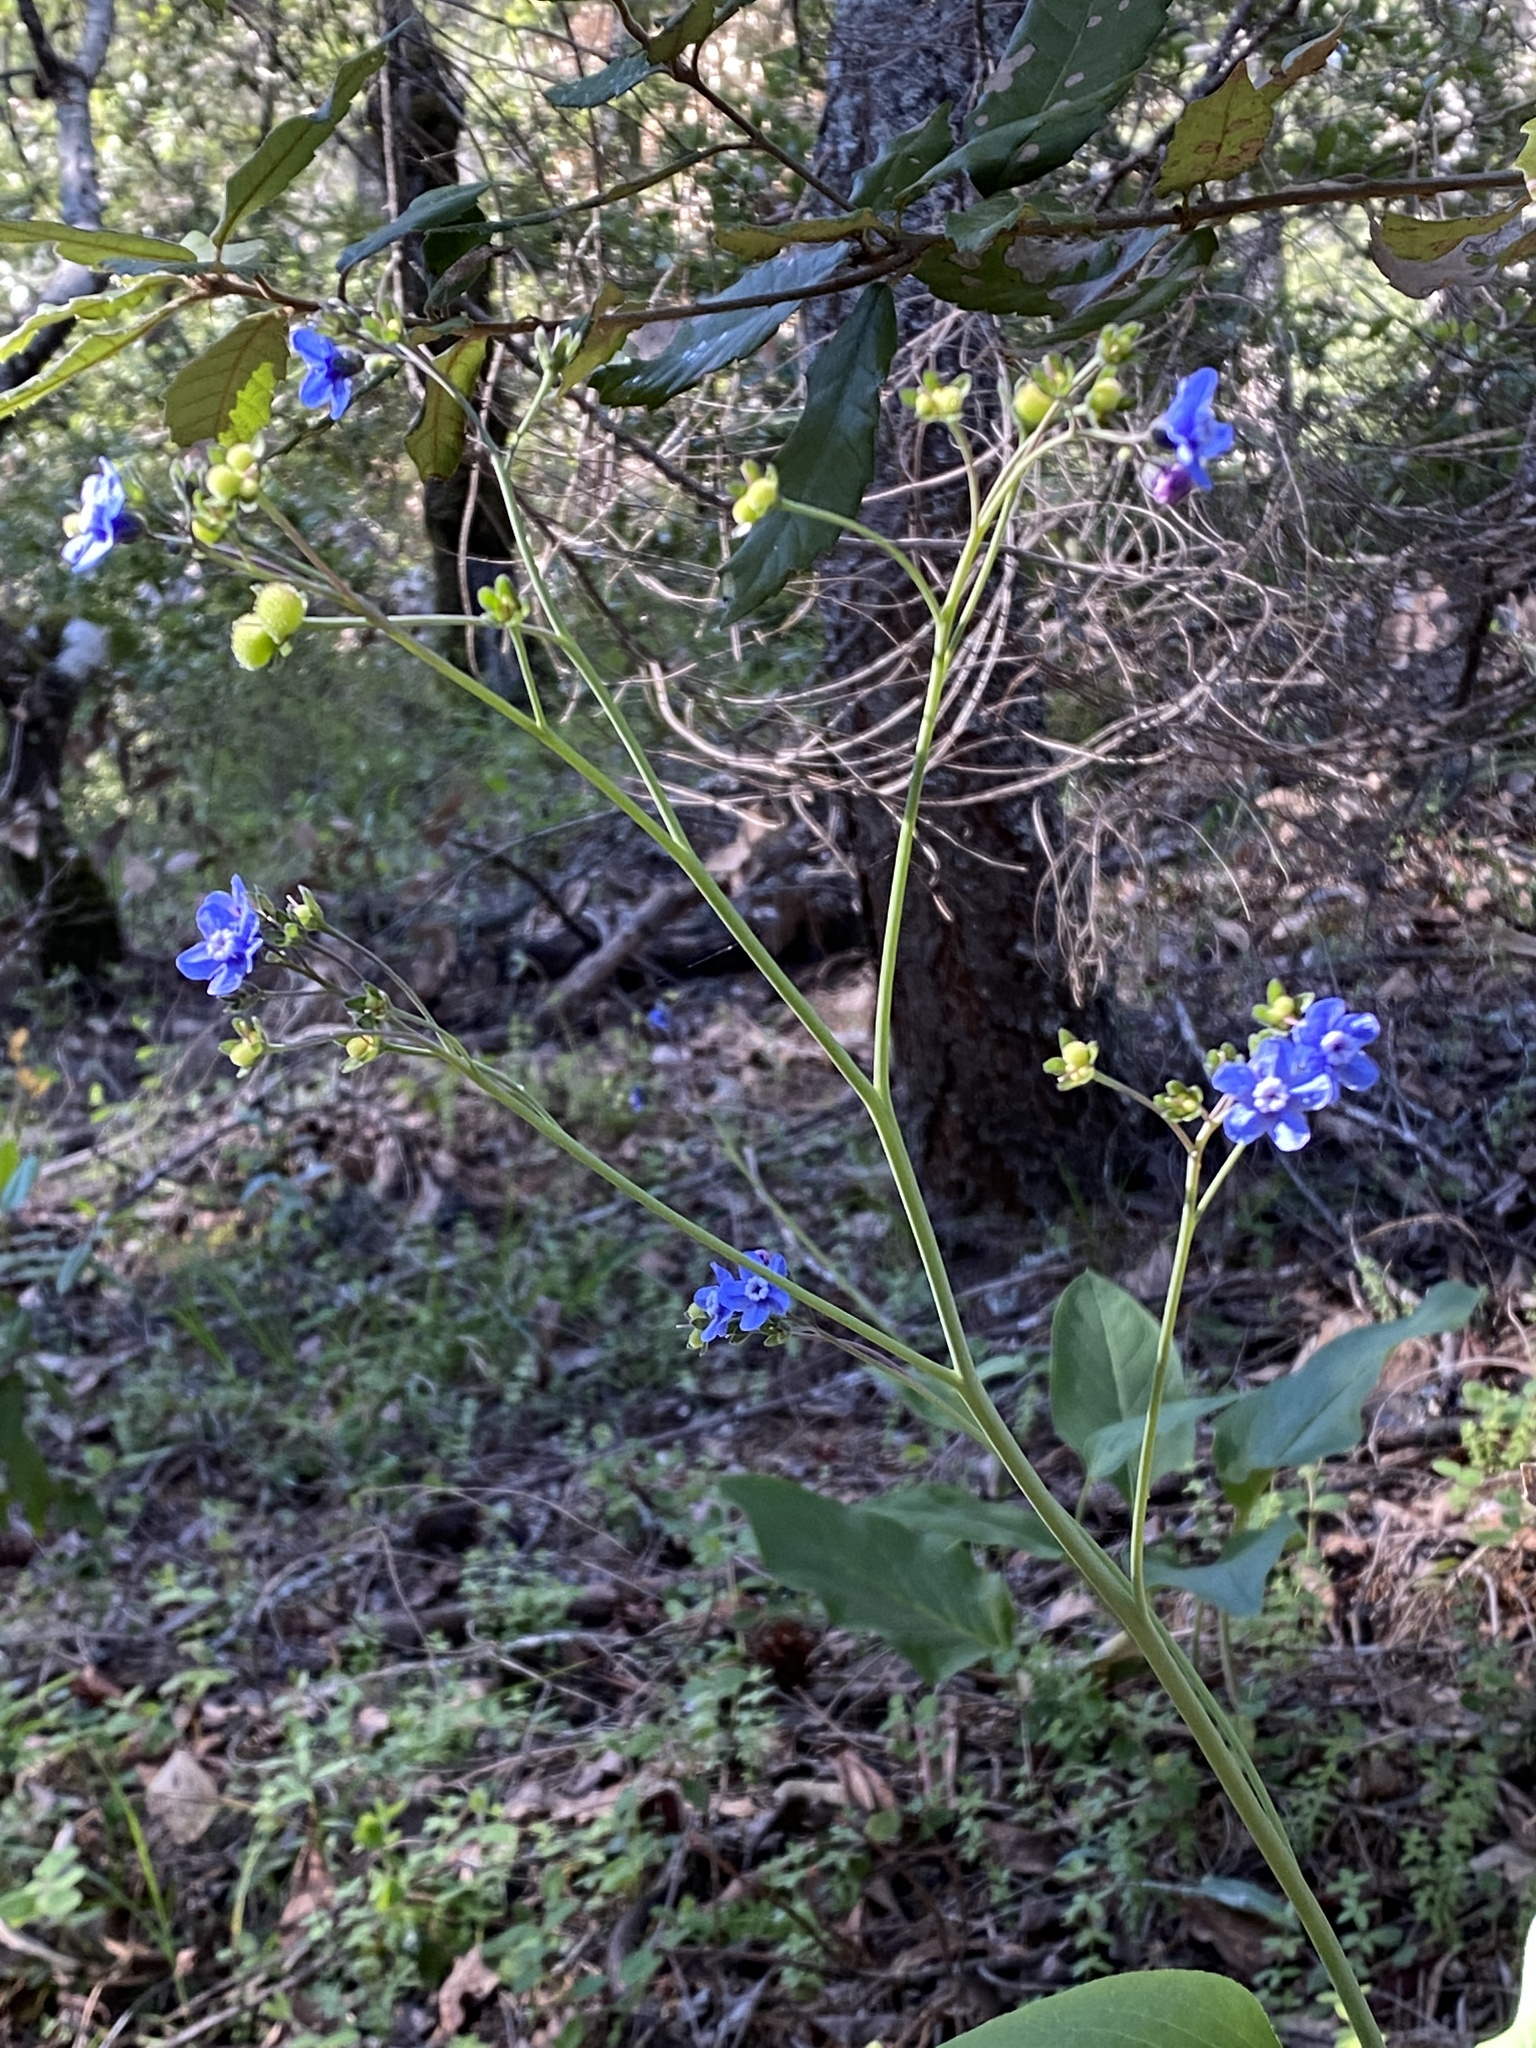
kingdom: Plantae
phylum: Tracheophyta
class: Magnoliopsida
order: Boraginales
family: Boraginaceae
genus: Adelinia
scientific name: Adelinia grande
